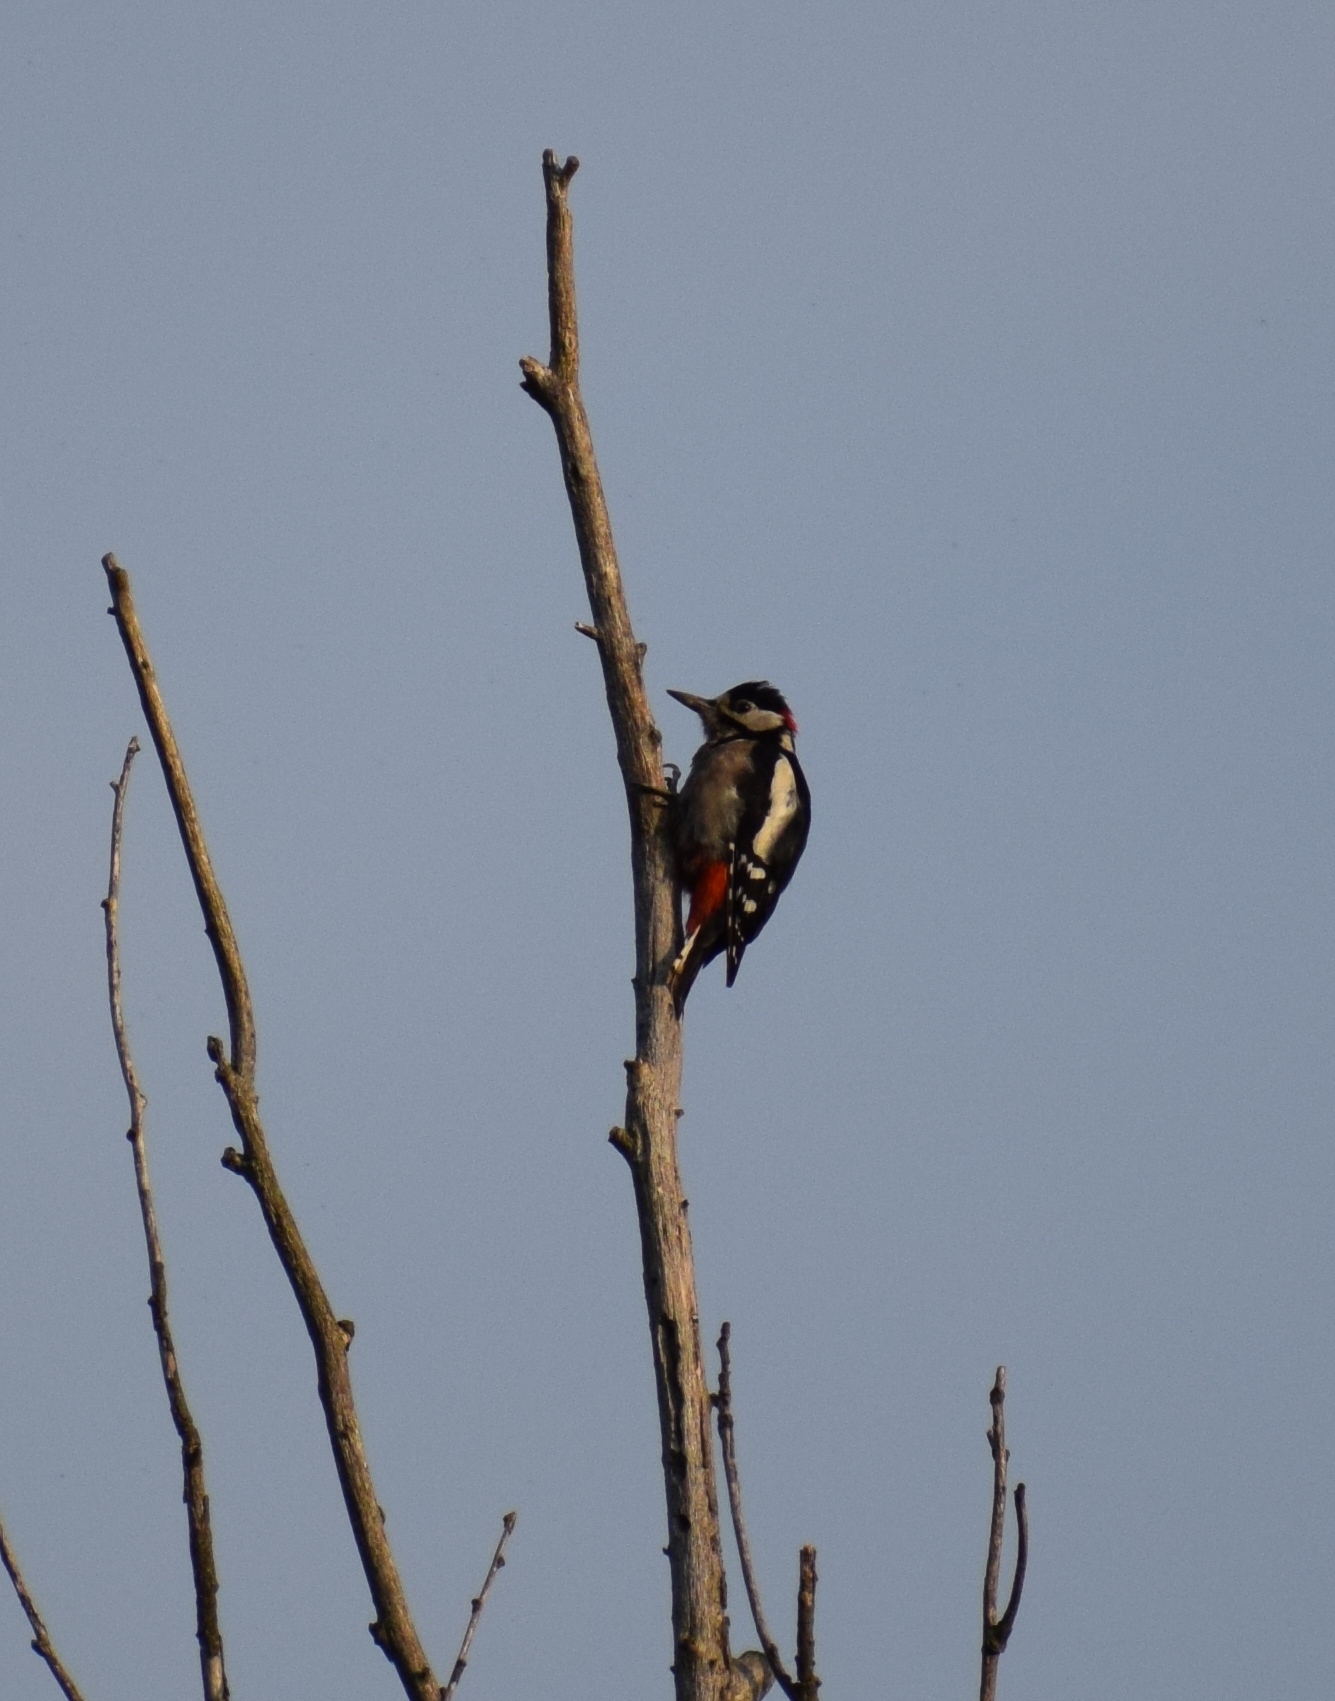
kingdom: Animalia
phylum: Chordata
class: Aves
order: Piciformes
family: Picidae
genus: Dendrocopos
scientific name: Dendrocopos major
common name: Great spotted woodpecker
